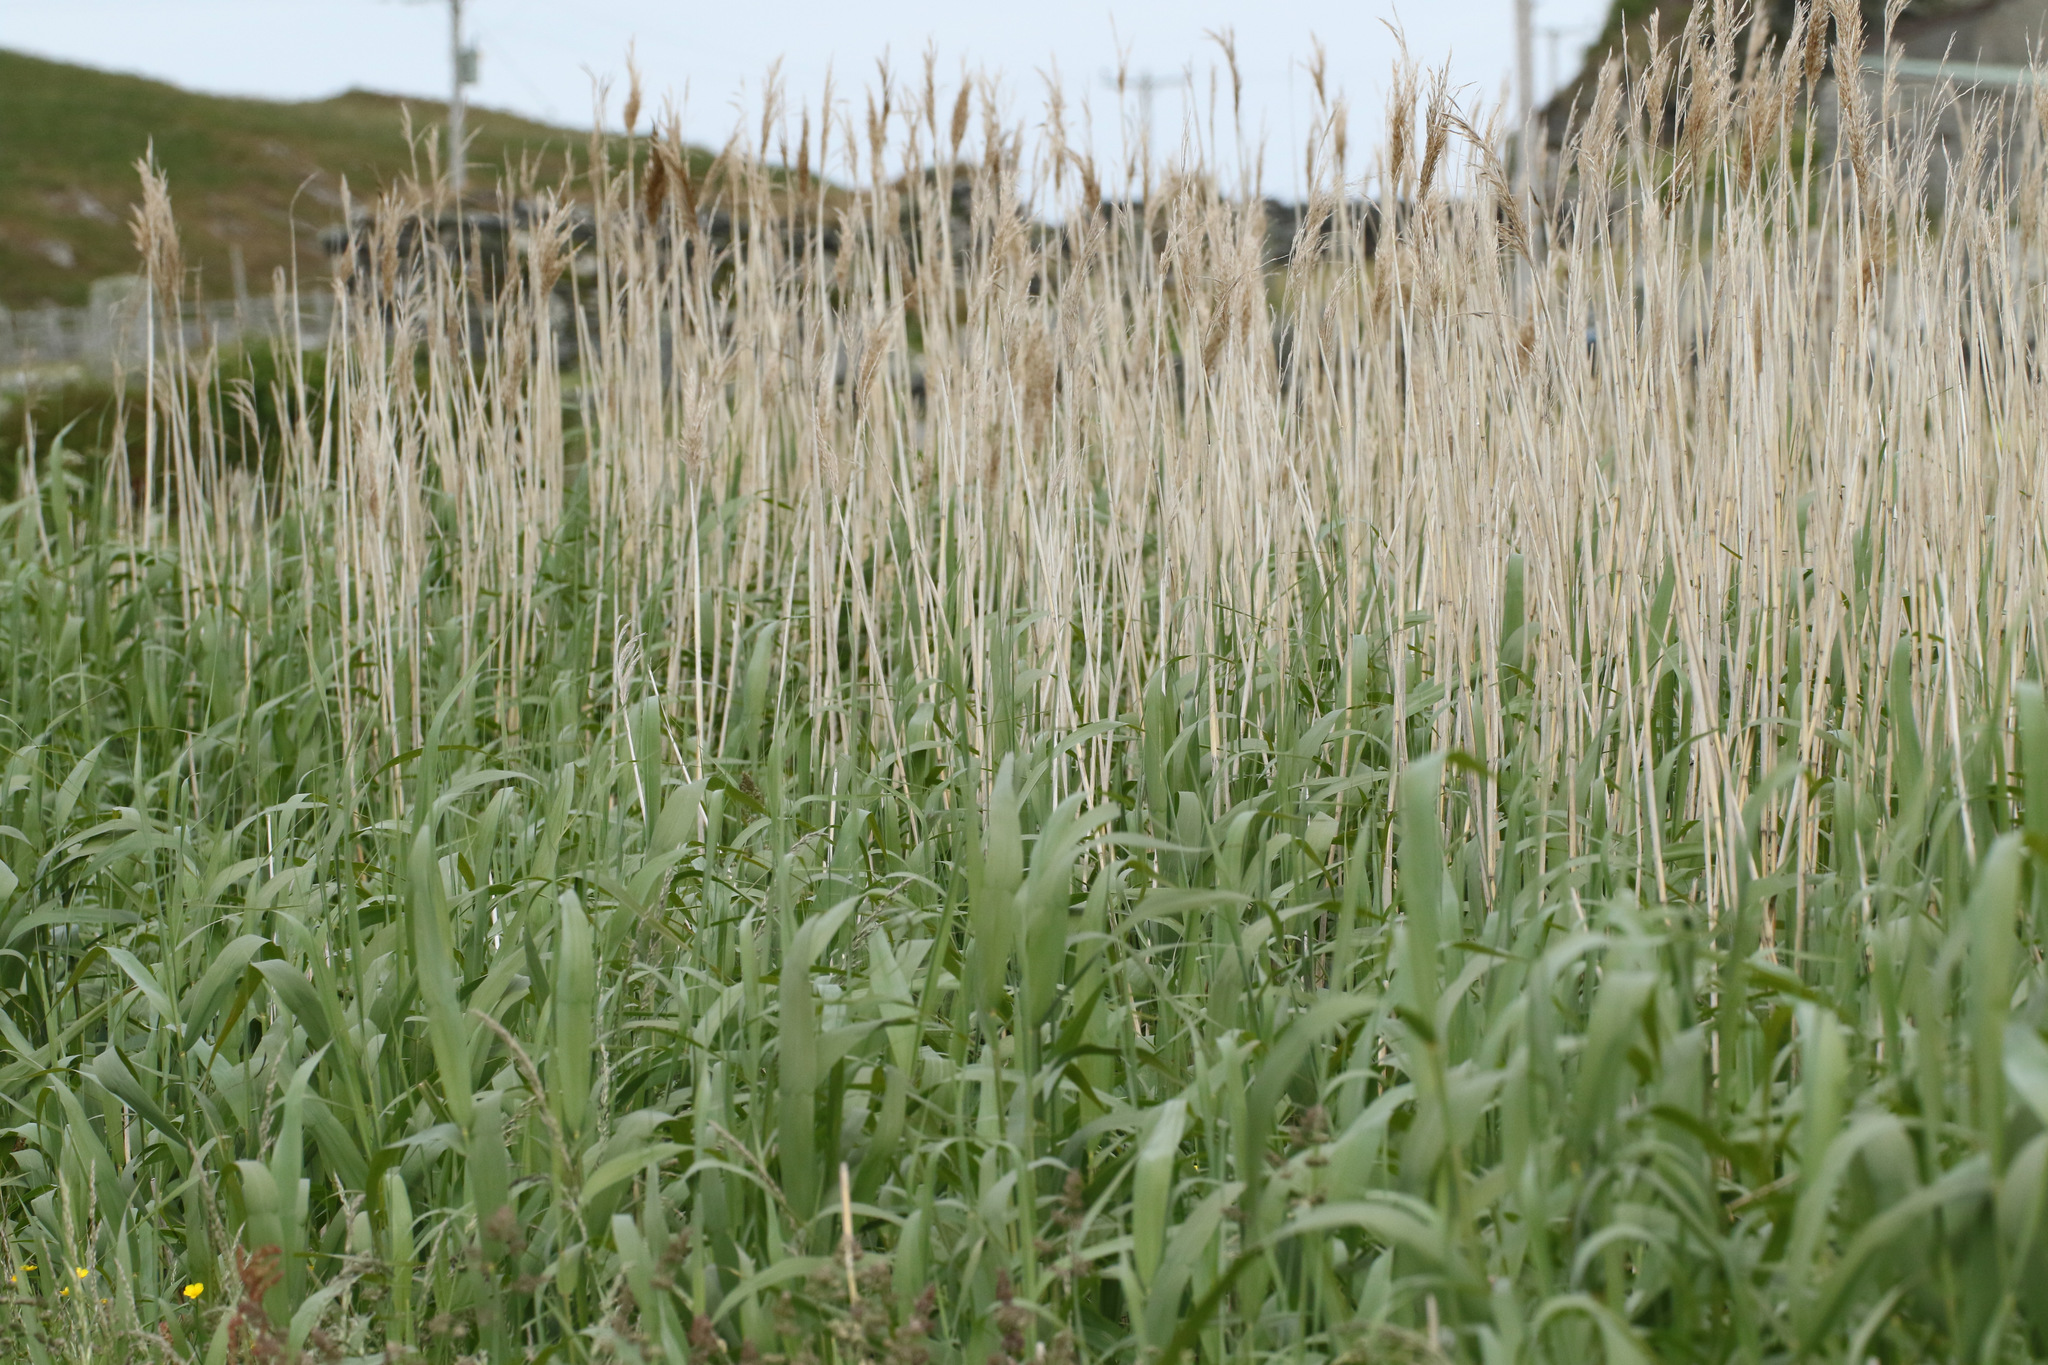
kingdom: Plantae
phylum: Tracheophyta
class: Liliopsida
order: Poales
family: Poaceae
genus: Phragmites
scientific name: Phragmites australis
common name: Common reed
